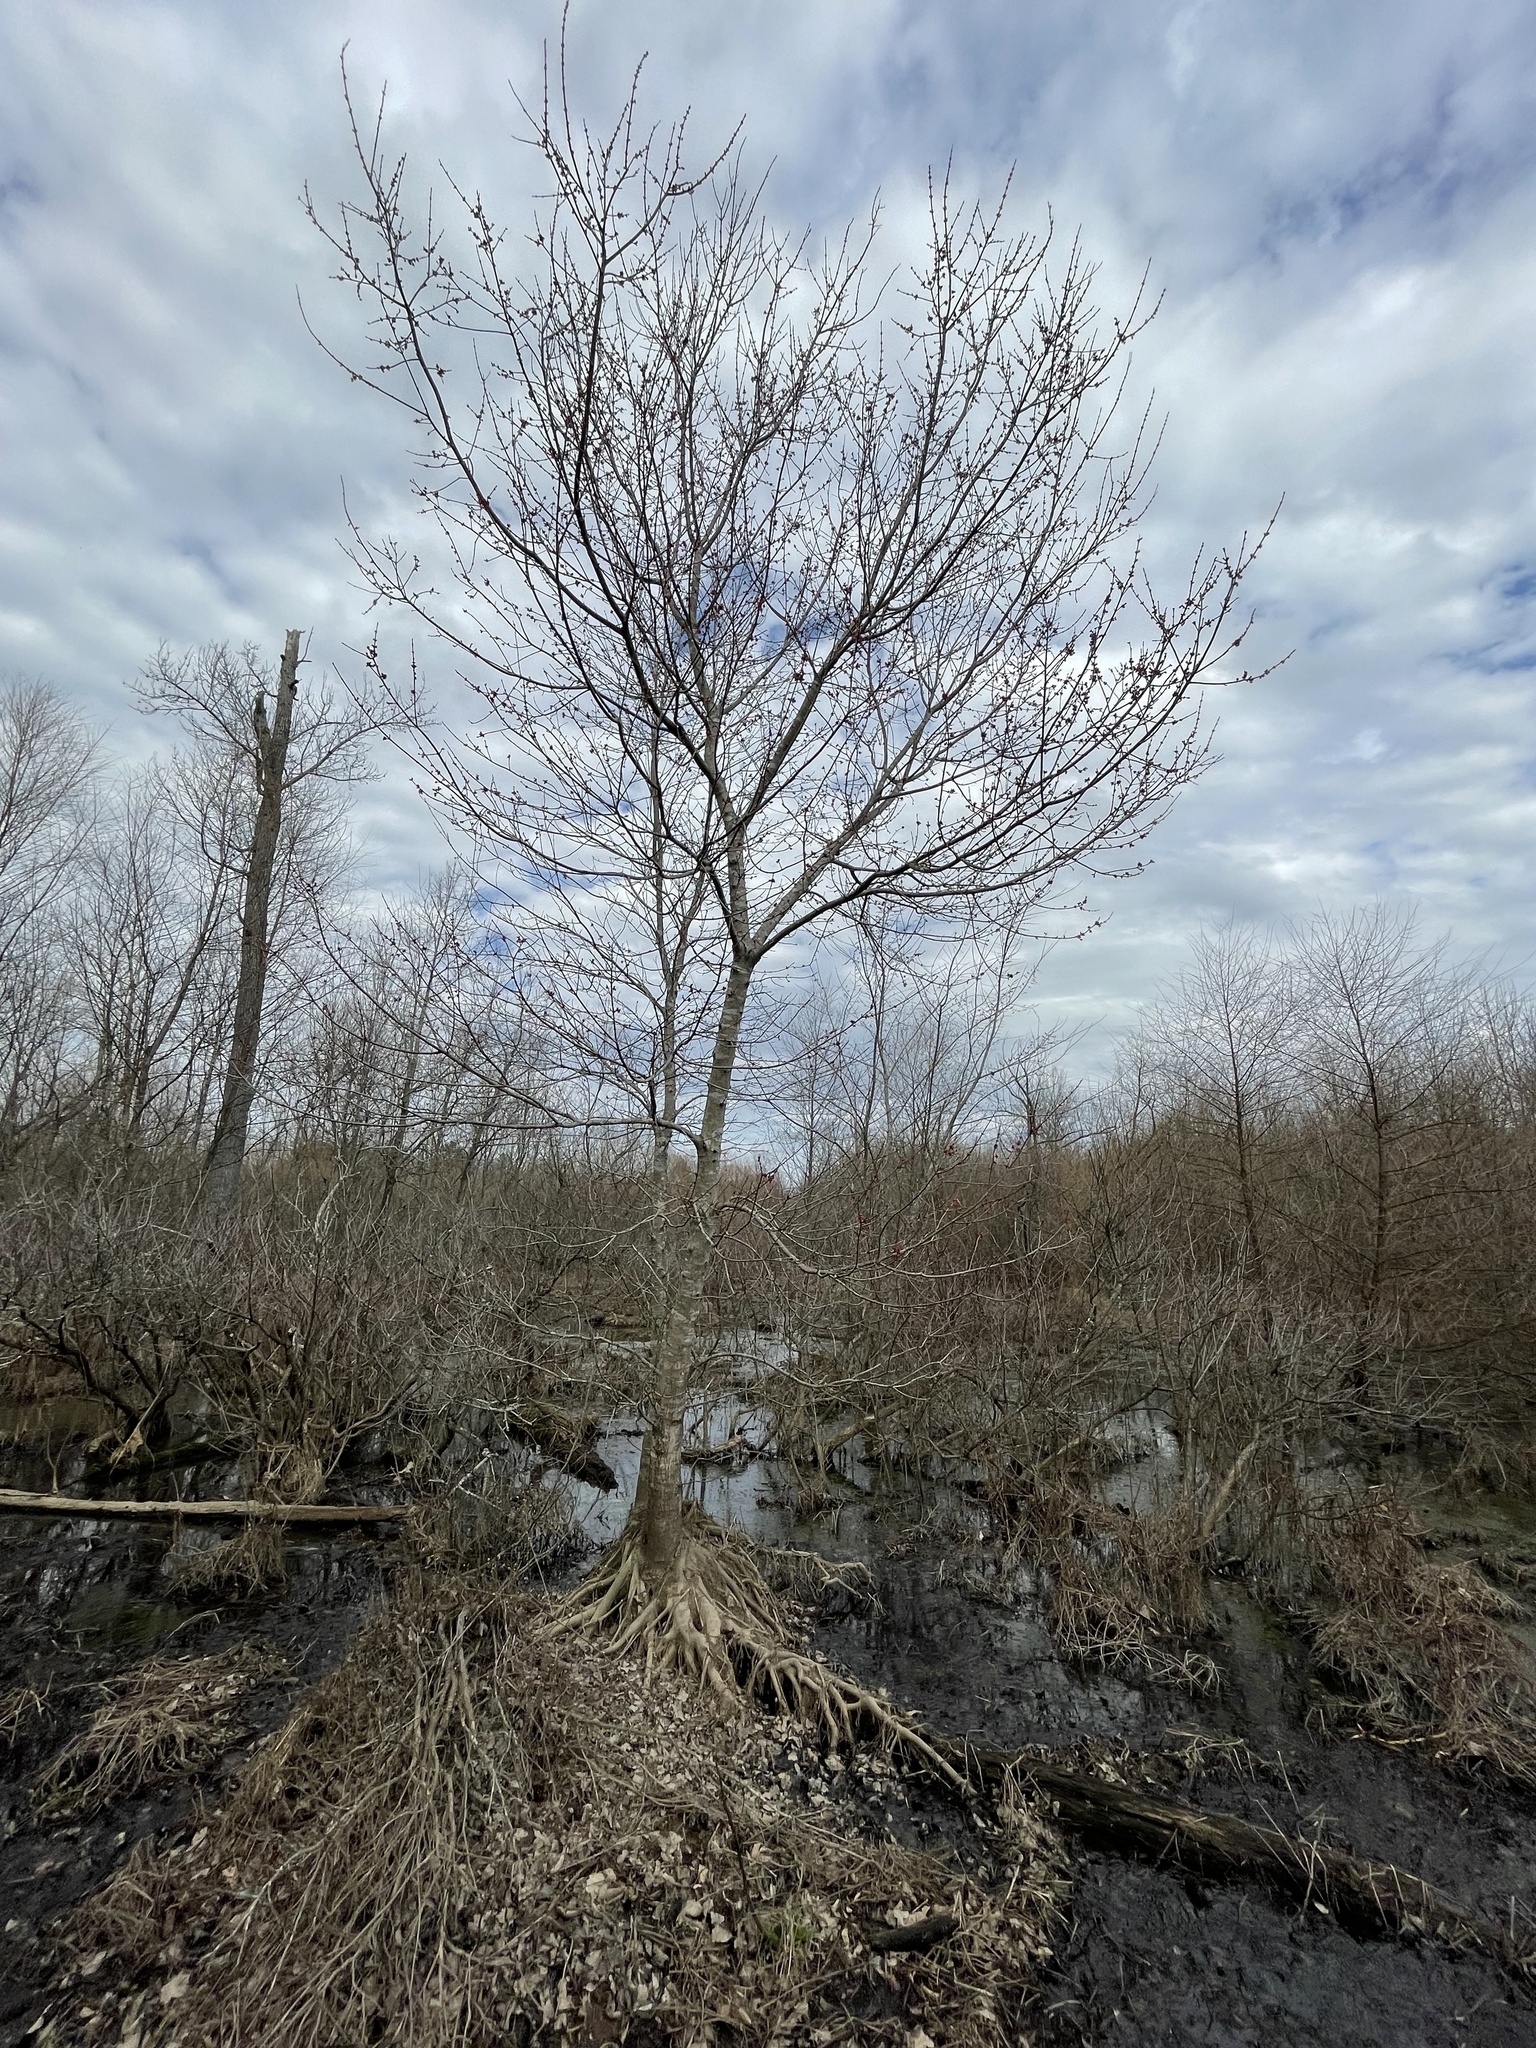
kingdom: Plantae
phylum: Tracheophyta
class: Magnoliopsida
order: Sapindales
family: Sapindaceae
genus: Acer
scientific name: Acer rubrum
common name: Red maple
